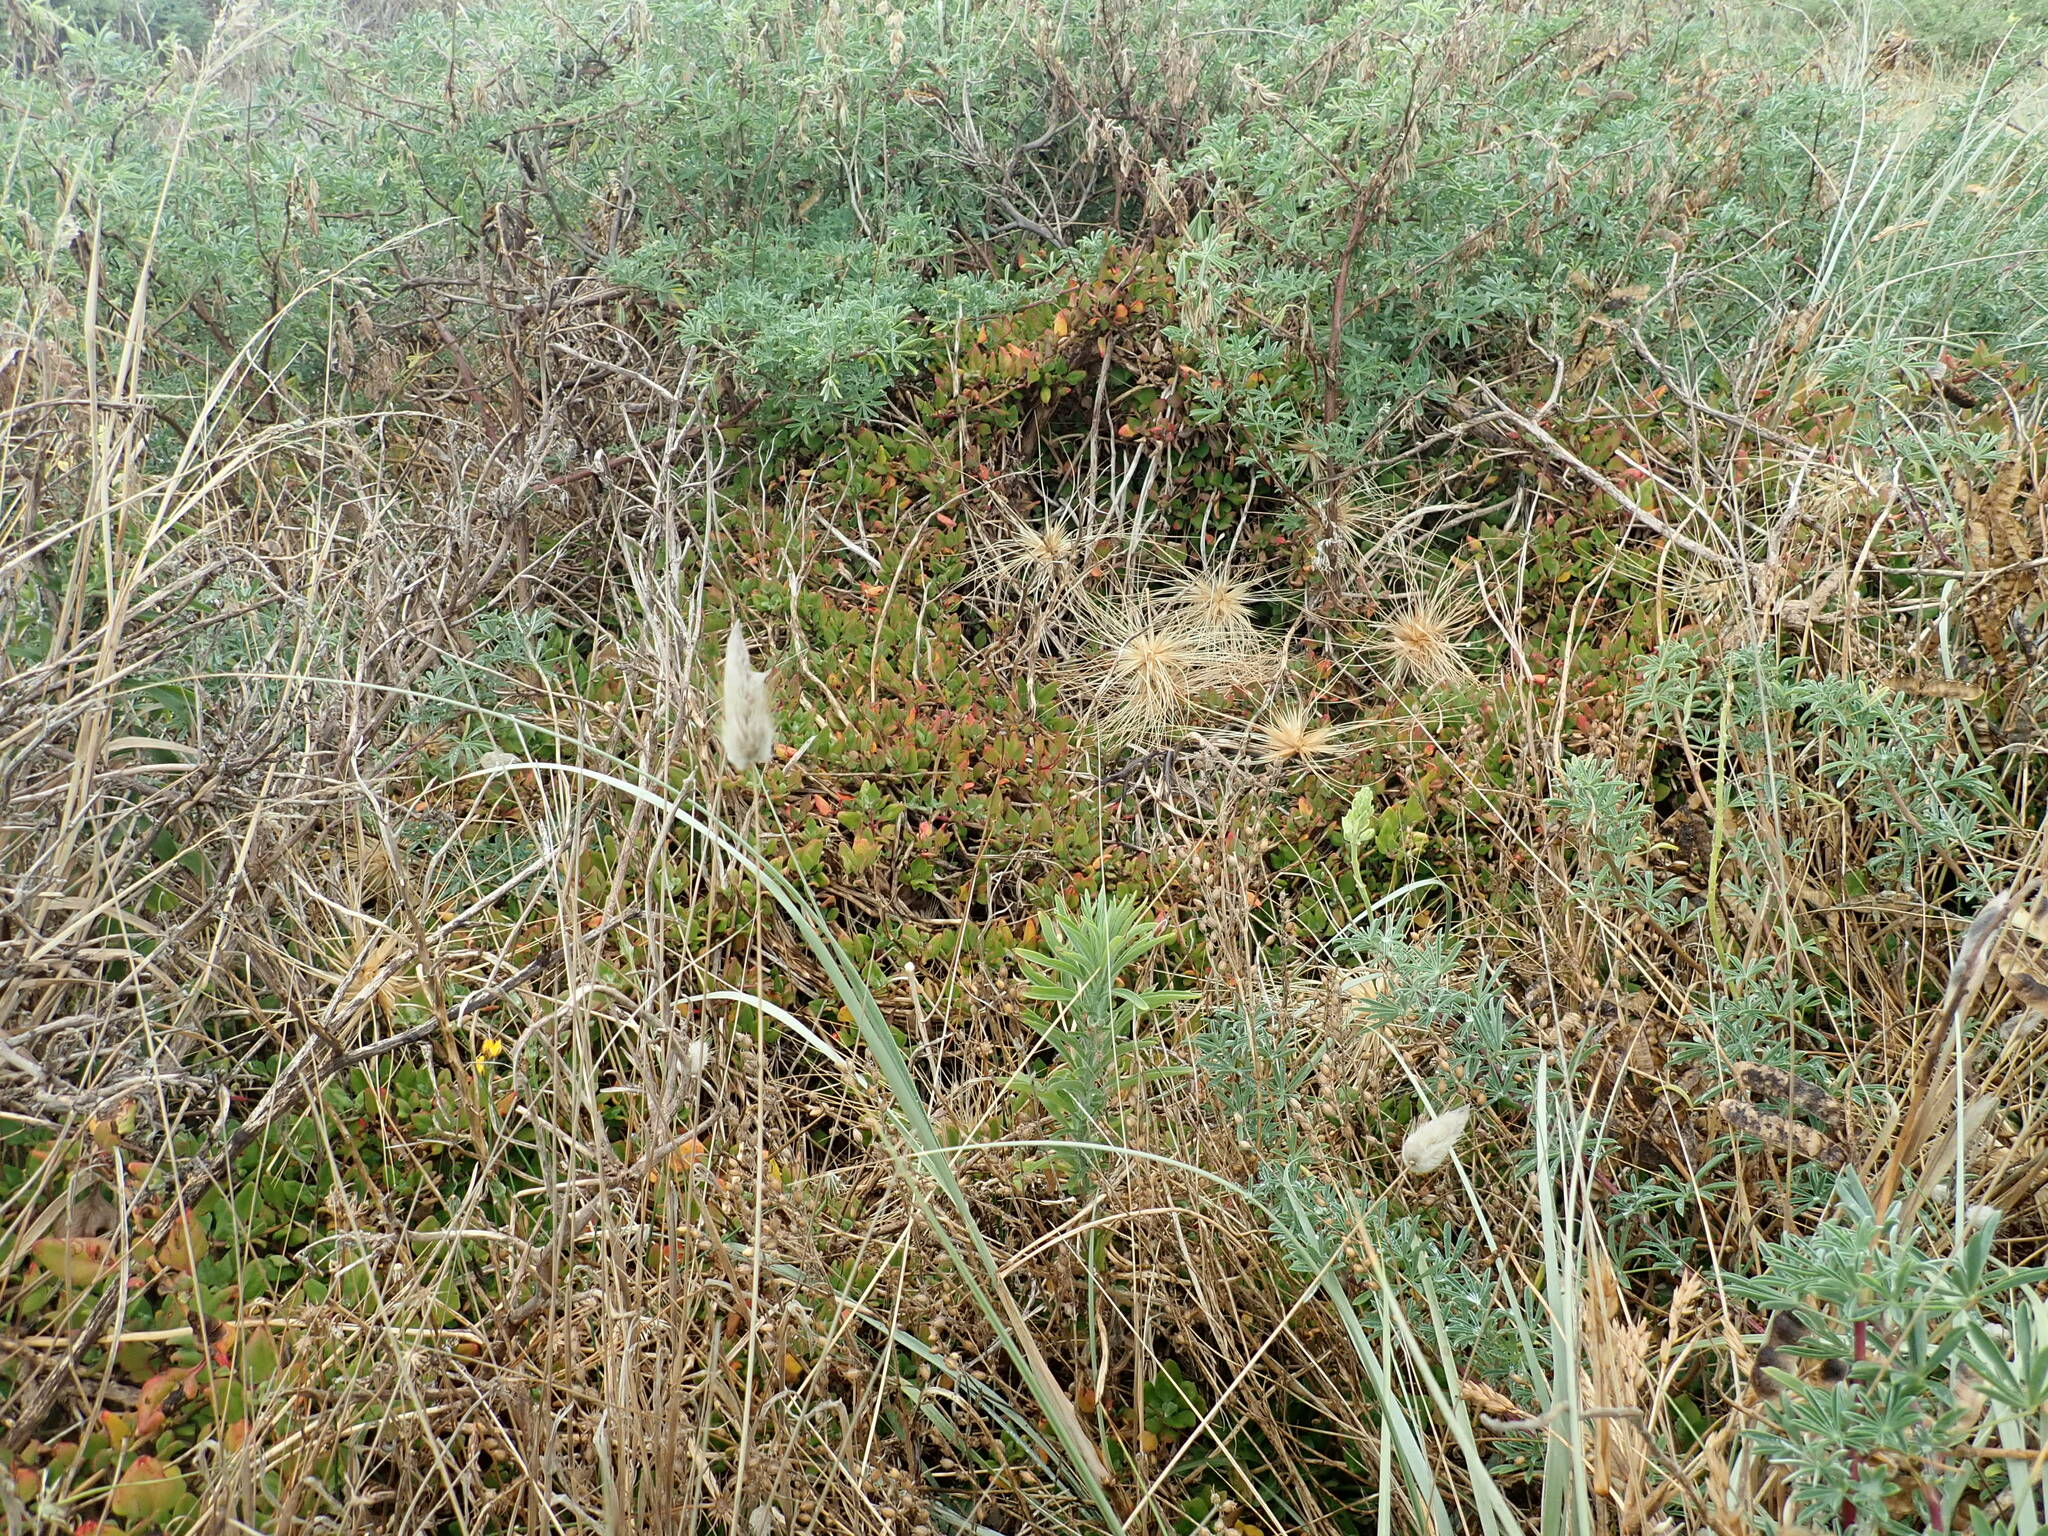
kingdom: Plantae
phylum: Tracheophyta
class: Magnoliopsida
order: Caryophyllales
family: Aizoaceae
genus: Tetragonia
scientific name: Tetragonia implexicoma
